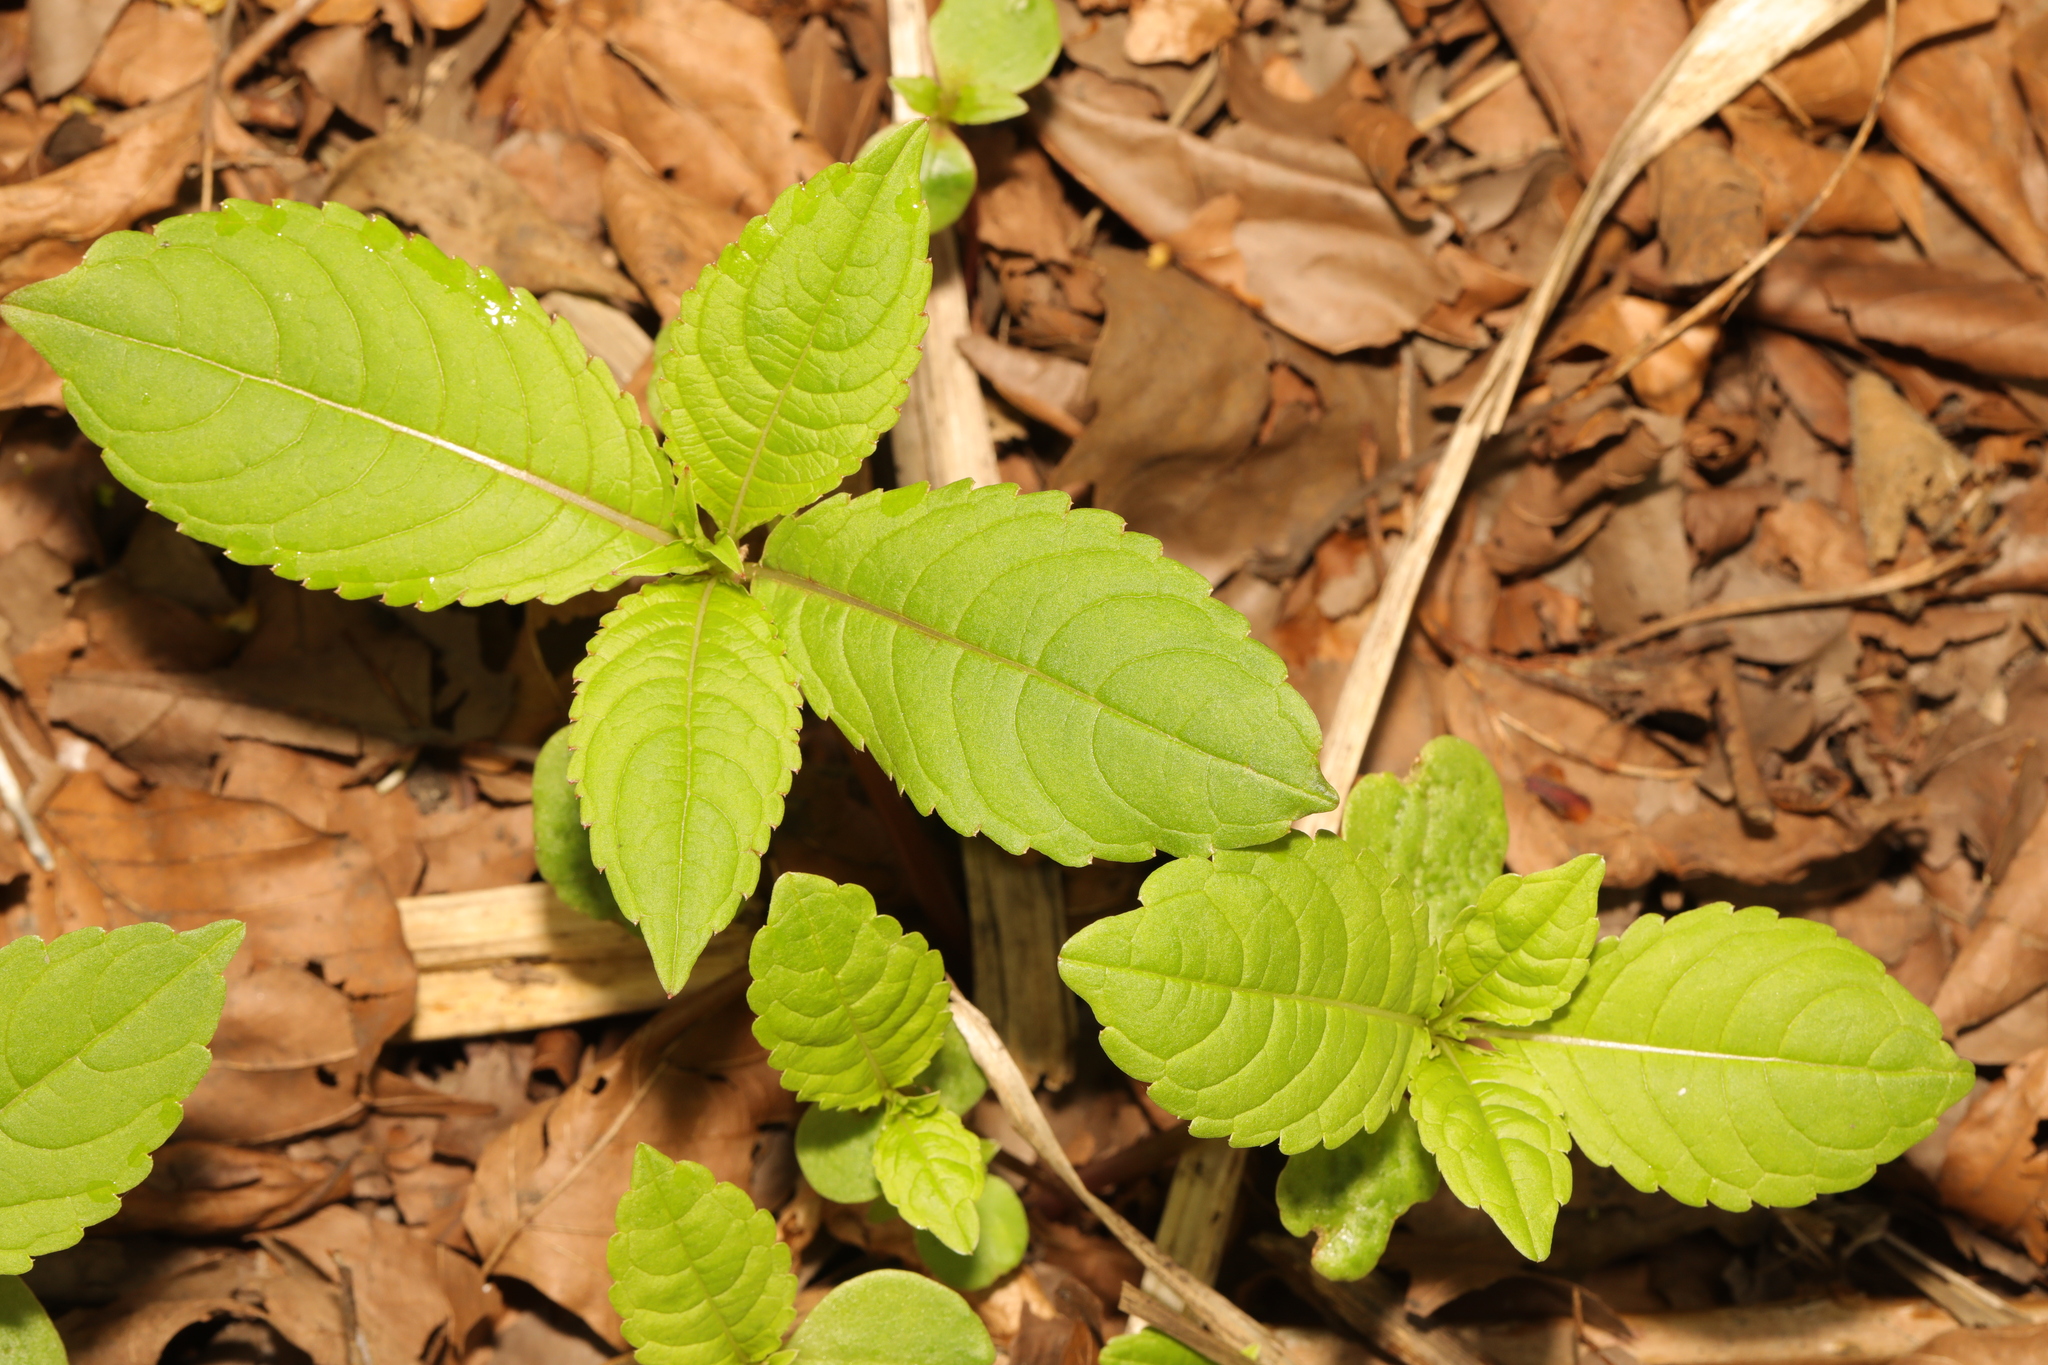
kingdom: Plantae
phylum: Tracheophyta
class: Magnoliopsida
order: Ericales
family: Balsaminaceae
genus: Impatiens
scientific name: Impatiens glandulifera
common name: Himalayan balsam
